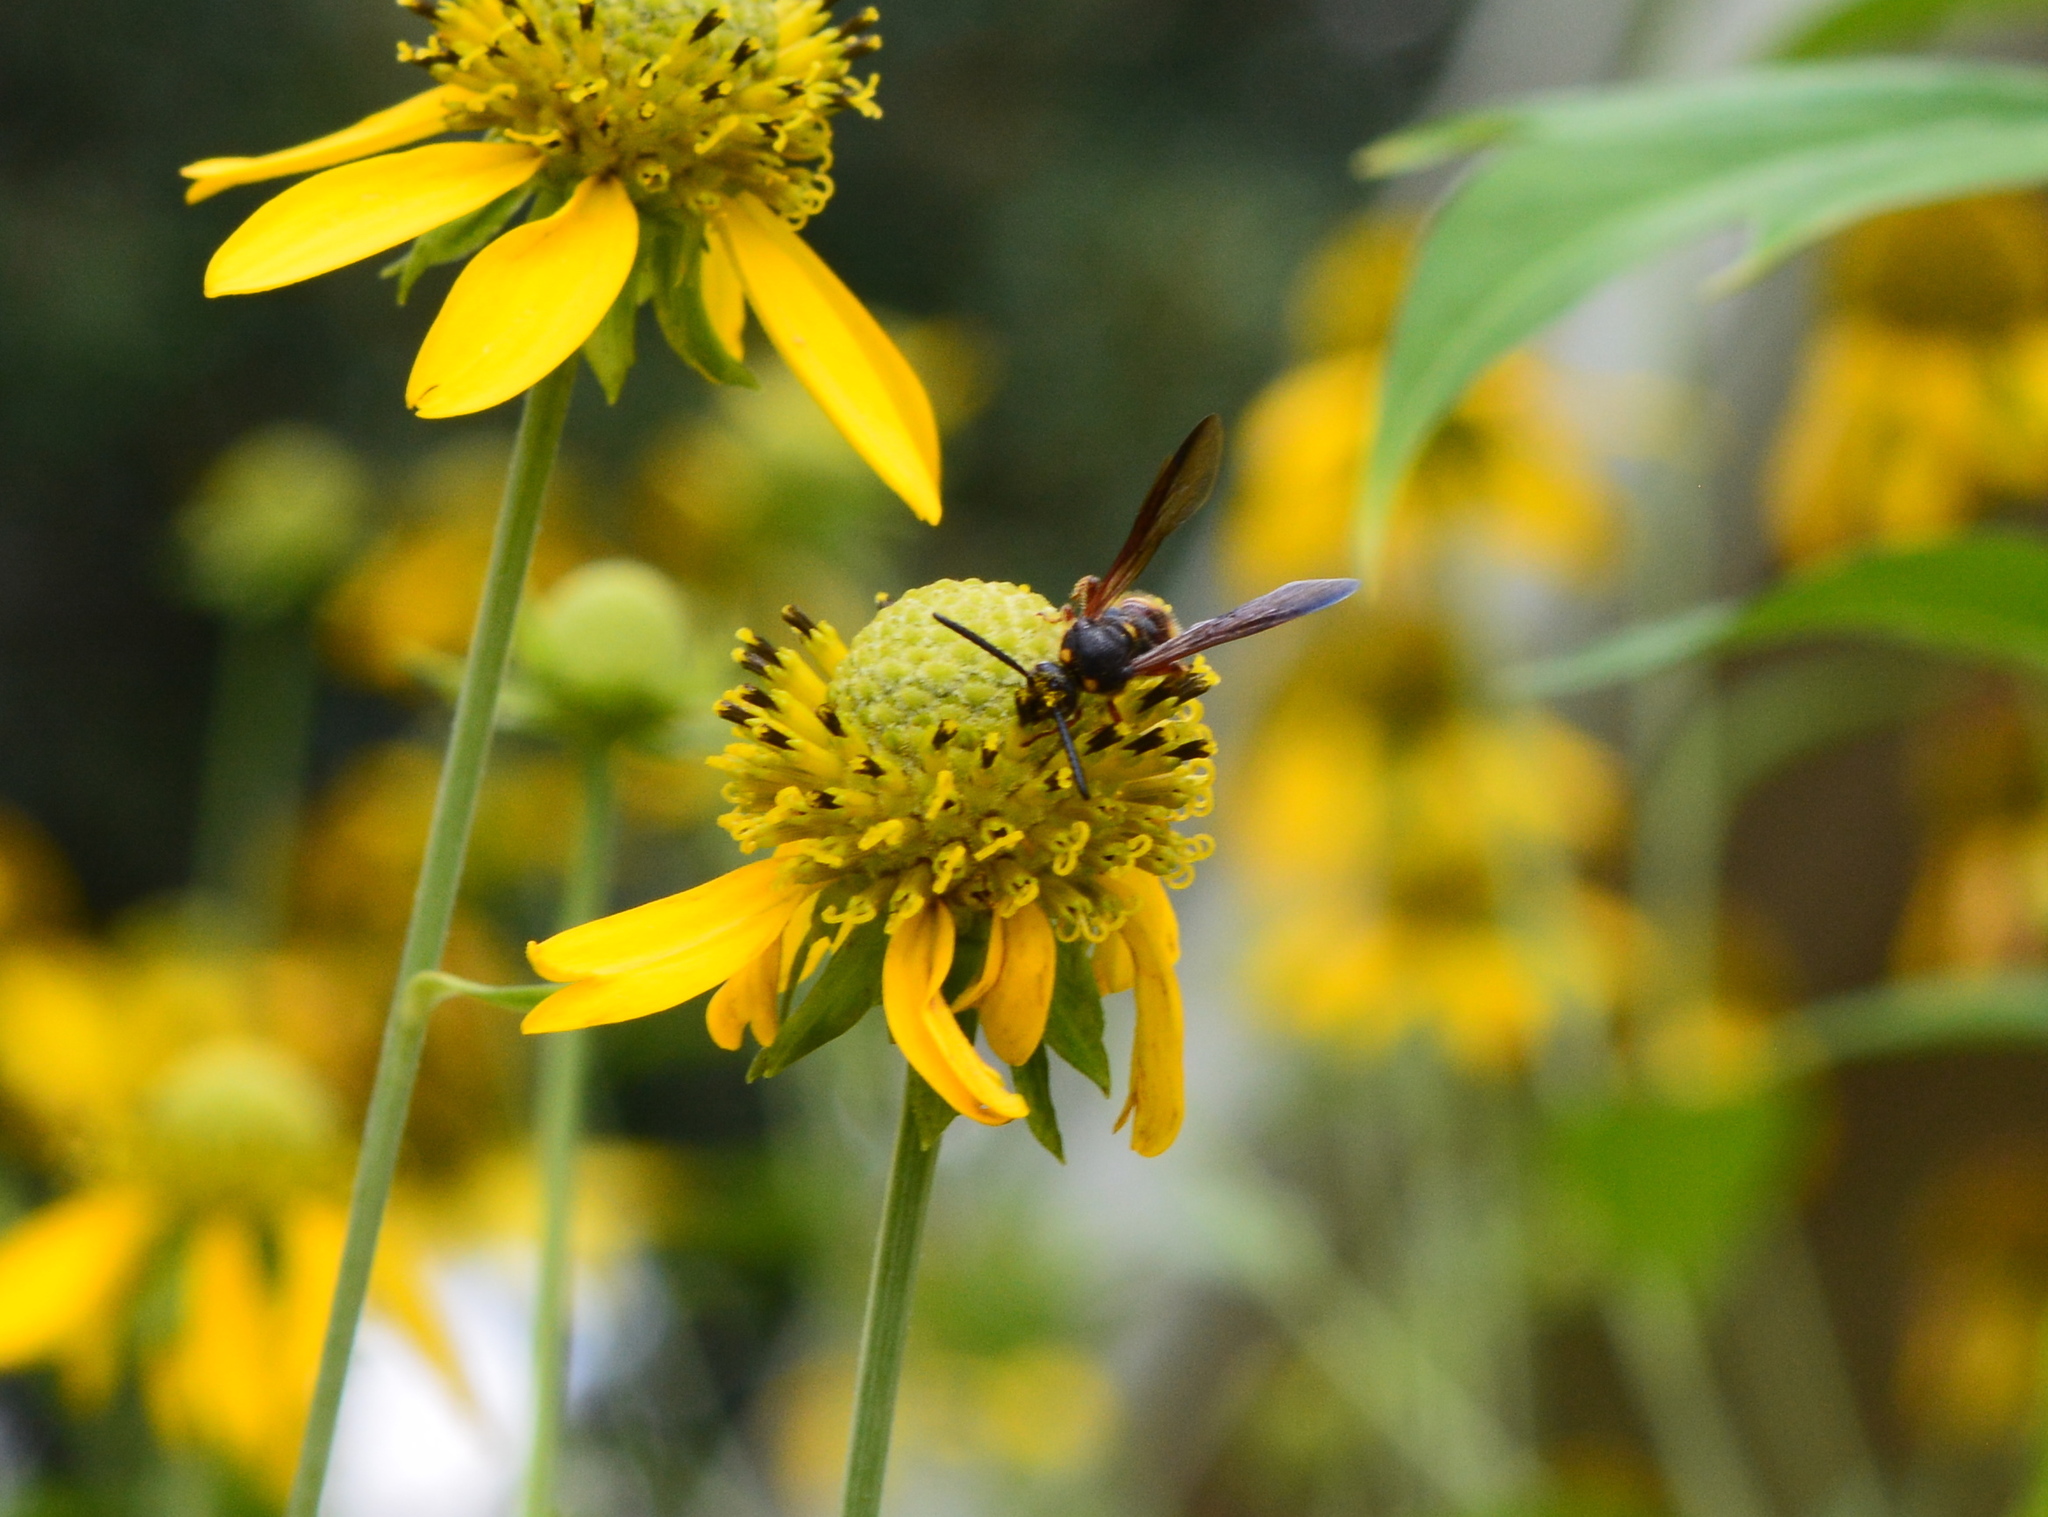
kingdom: Animalia
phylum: Arthropoda
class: Insecta
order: Hymenoptera
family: Scoliidae
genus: Scolia
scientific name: Scolia nobilitata
